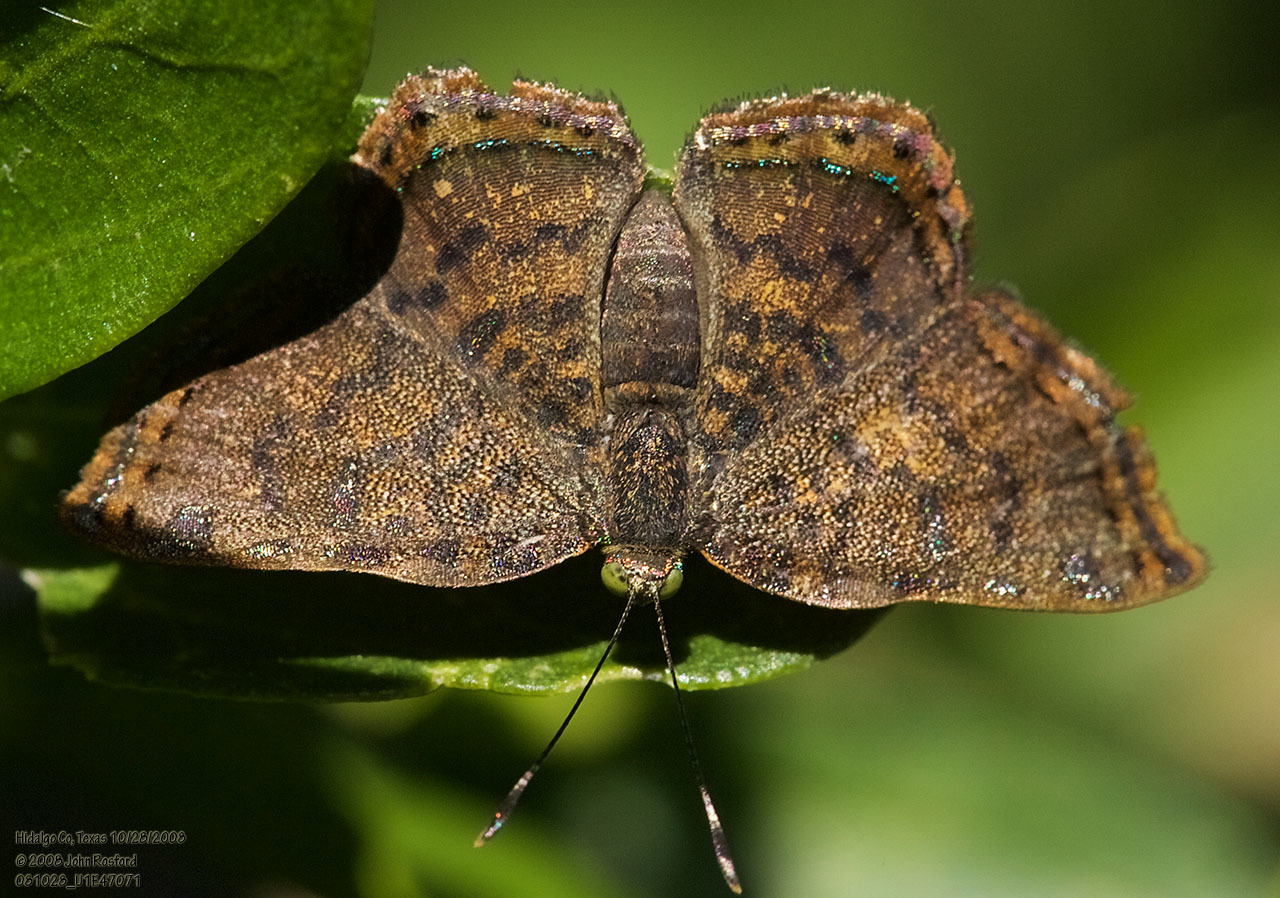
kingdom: Animalia
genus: Caria
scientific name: Caria ino
